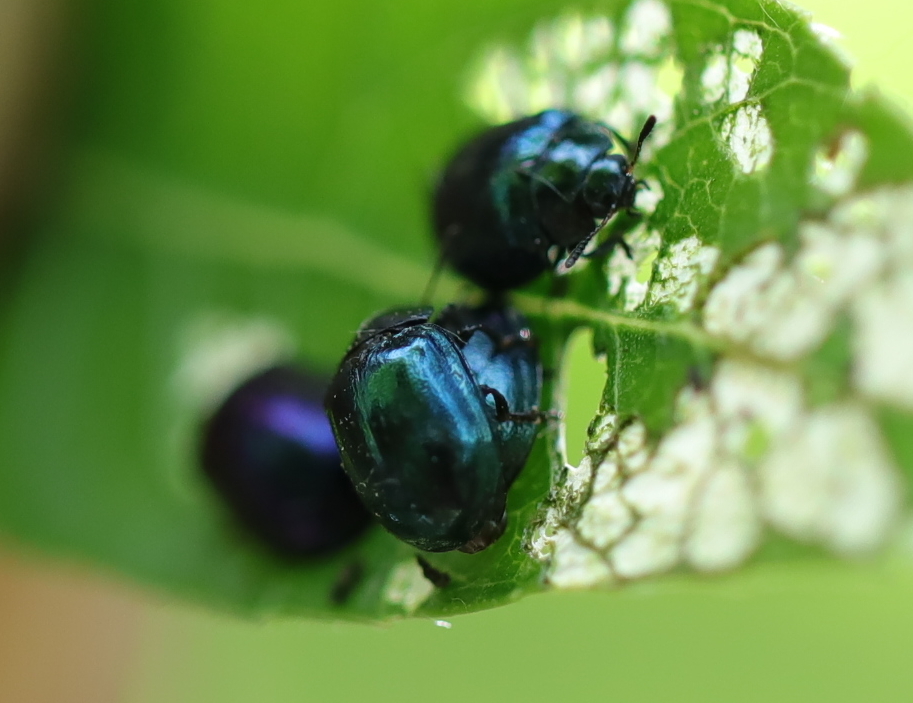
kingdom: Animalia
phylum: Arthropoda
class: Insecta
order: Coleoptera
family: Chrysomelidae
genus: Plagiodera
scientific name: Plagiodera versicolora
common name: Imported willow leaf beetle
